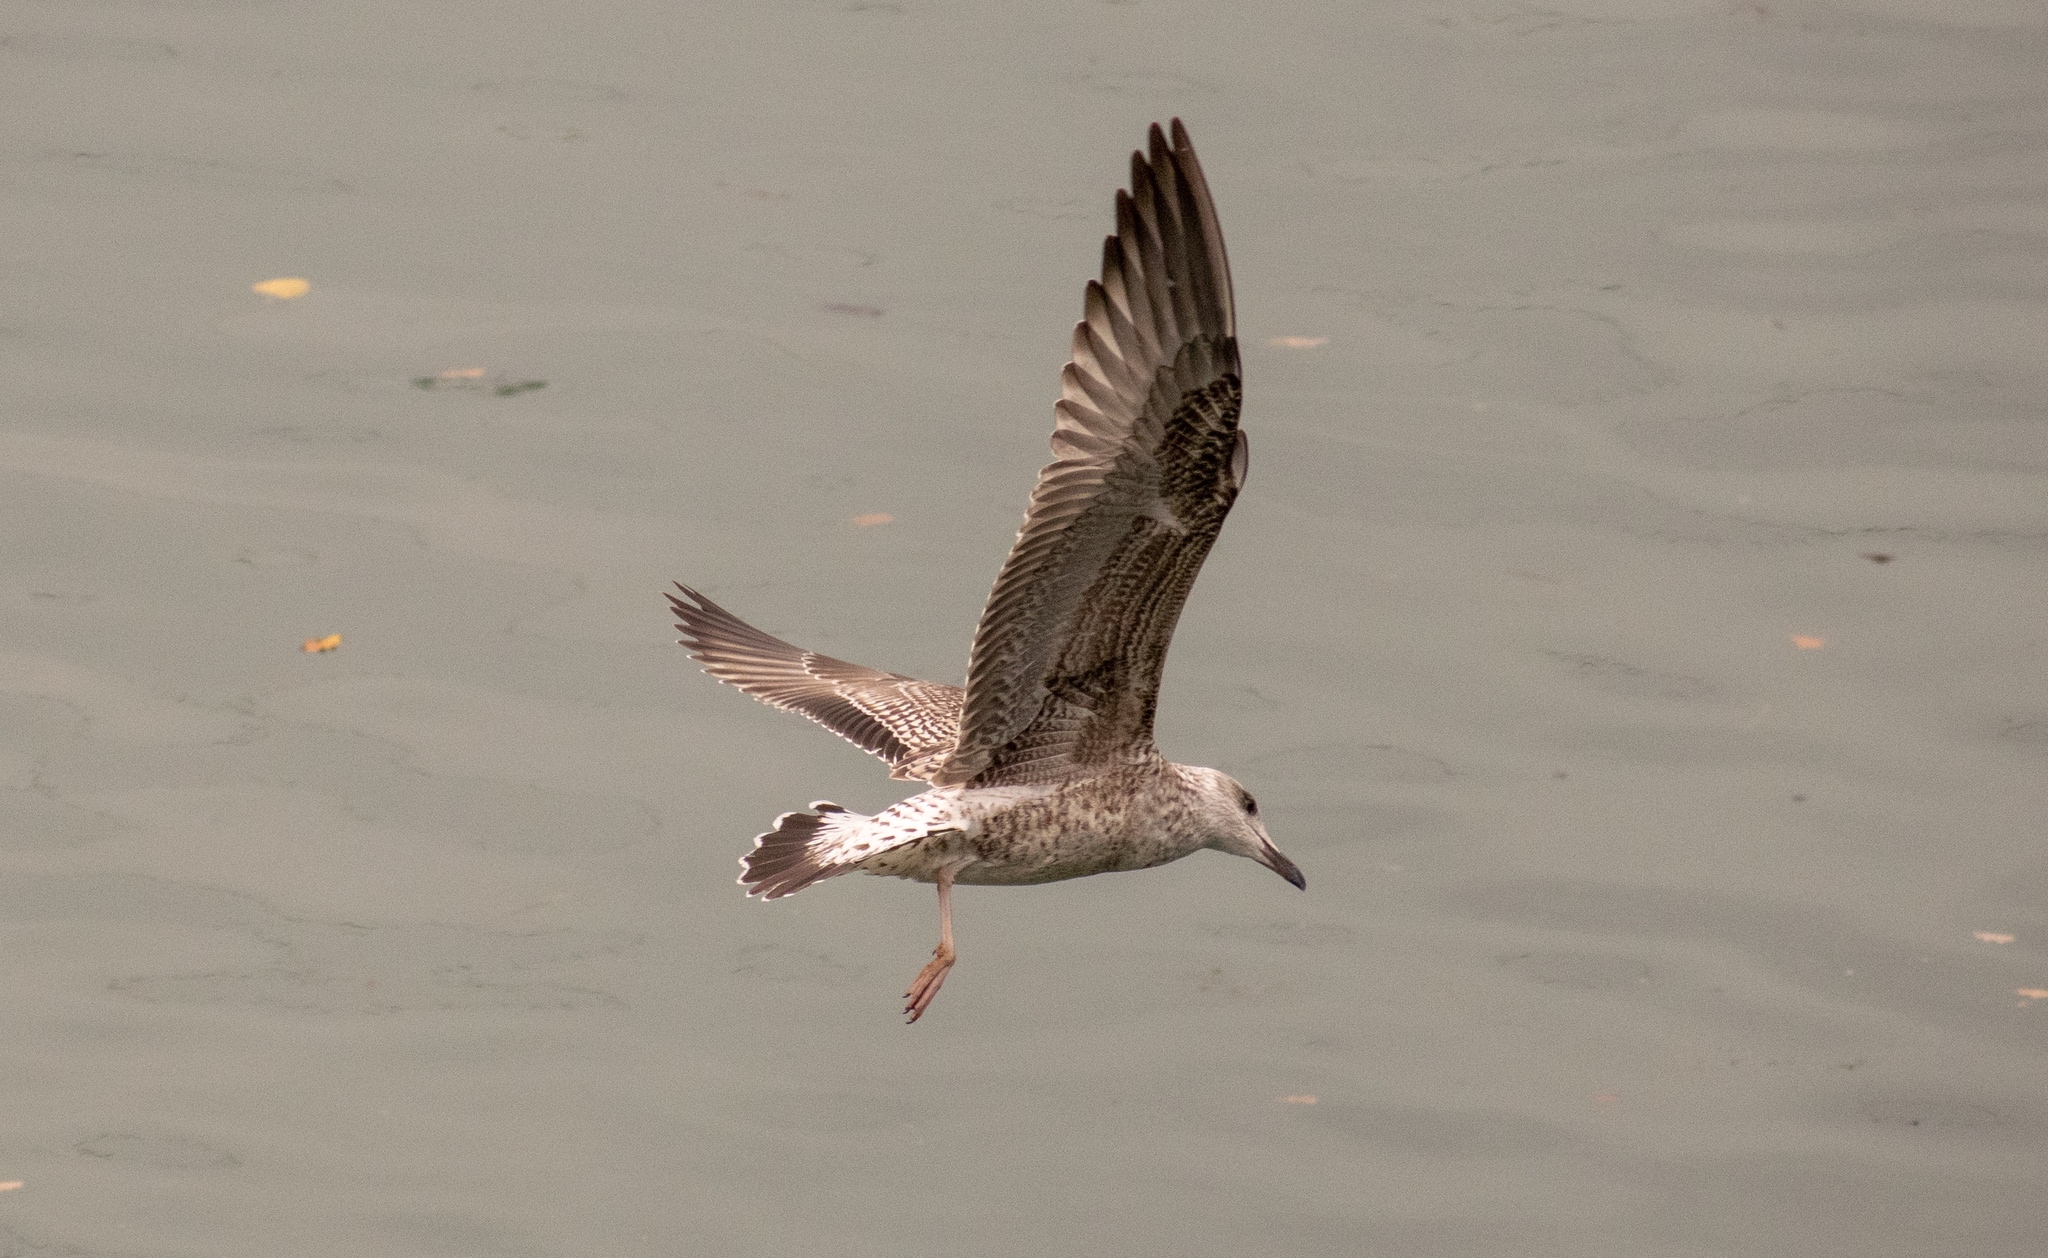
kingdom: Animalia
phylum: Chordata
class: Aves
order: Charadriiformes
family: Laridae
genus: Larus
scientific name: Larus michahellis
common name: Yellow-legged gull
